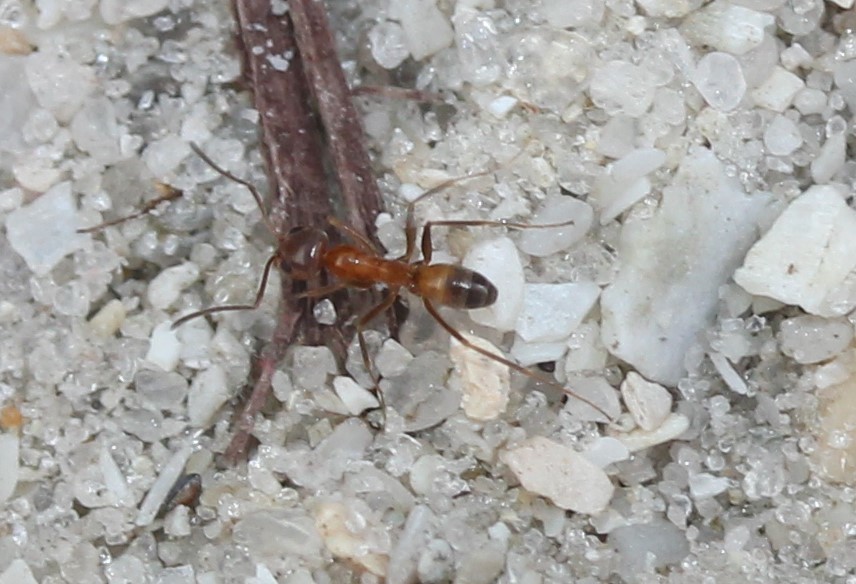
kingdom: Animalia
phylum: Arthropoda
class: Insecta
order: Hymenoptera
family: Formicidae
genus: Dorymyrmex
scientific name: Dorymyrmex bureni
